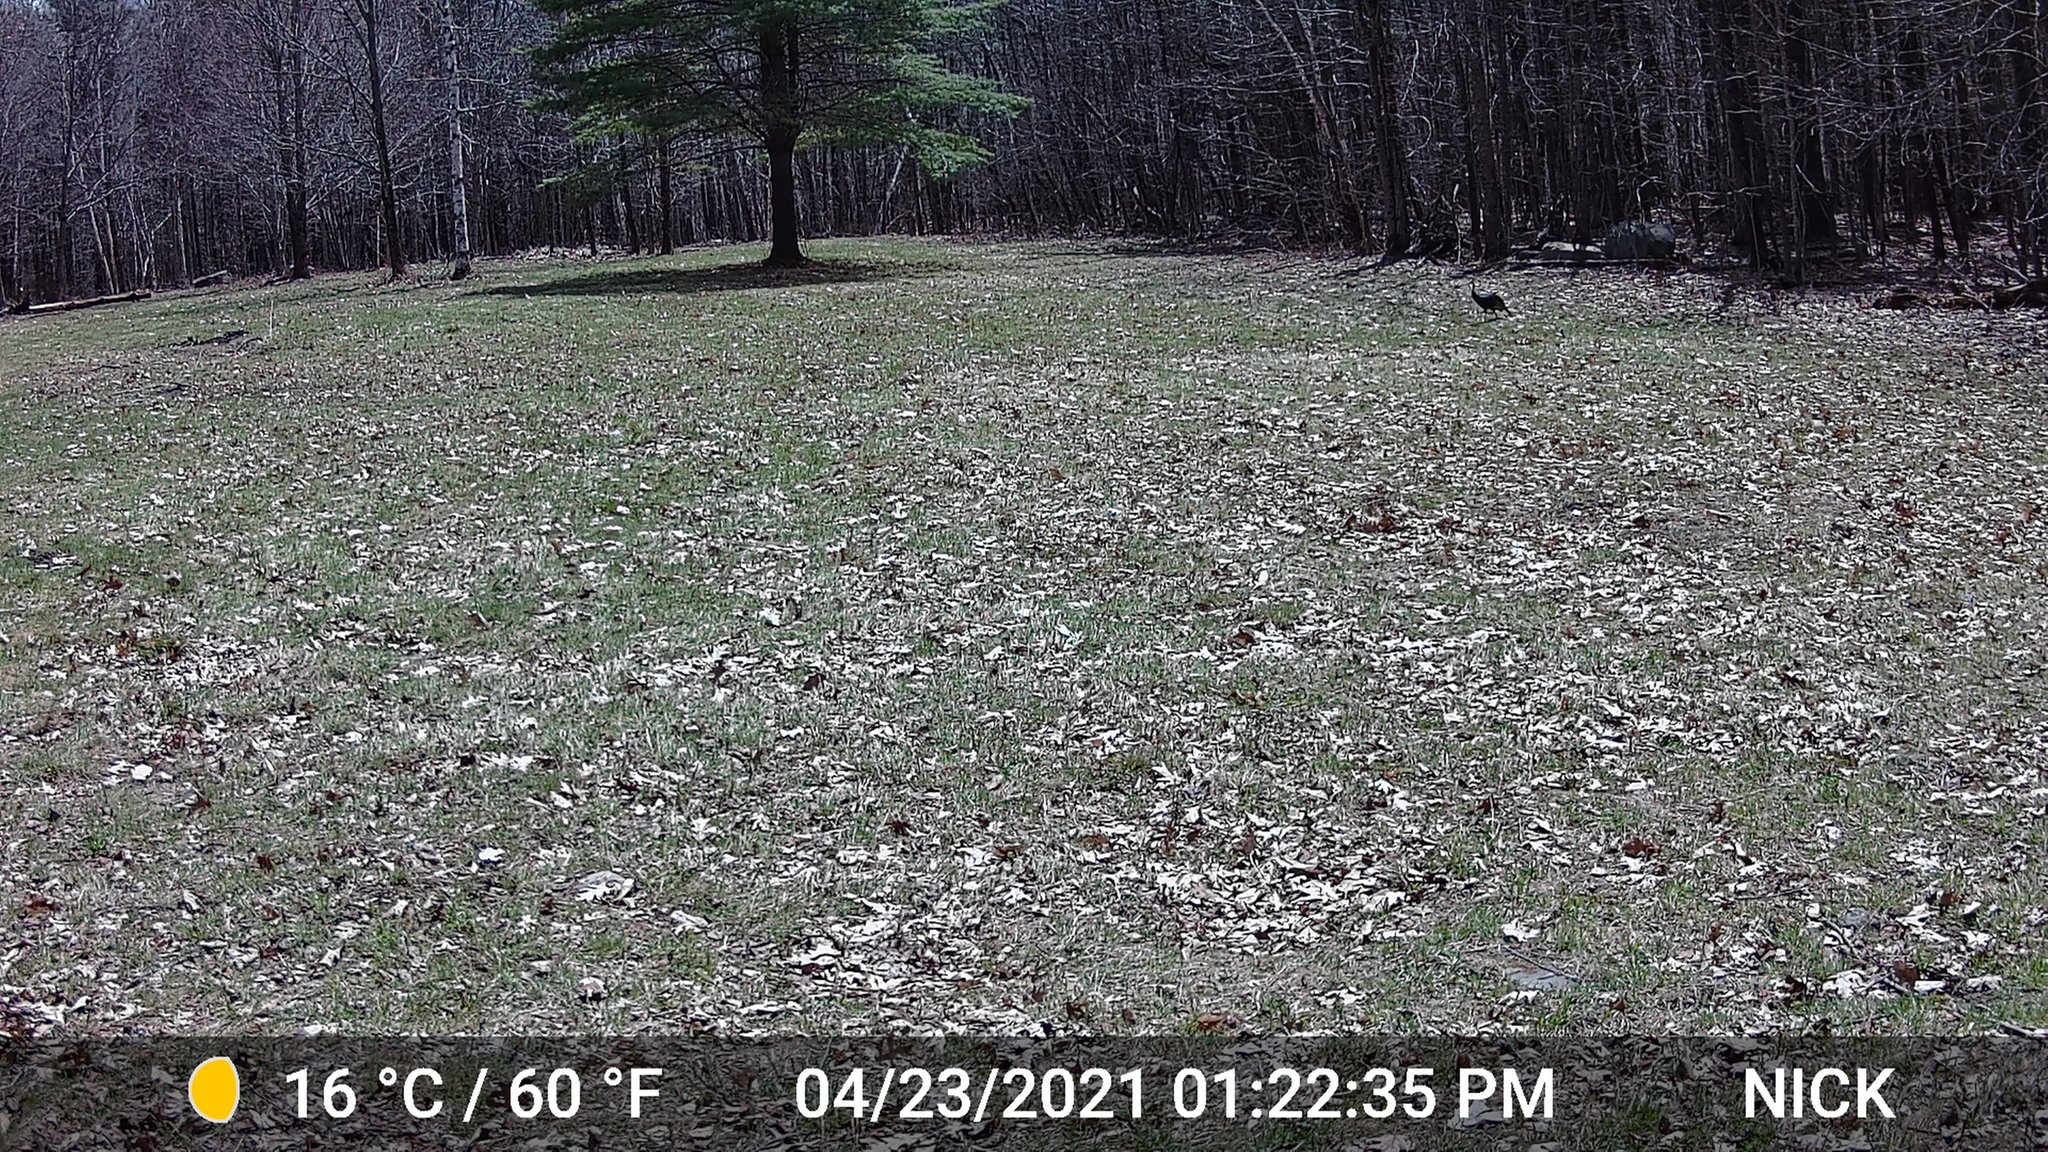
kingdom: Animalia
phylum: Chordata
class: Aves
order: Galliformes
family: Phasianidae
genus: Meleagris
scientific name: Meleagris gallopavo
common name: Wild turkey
